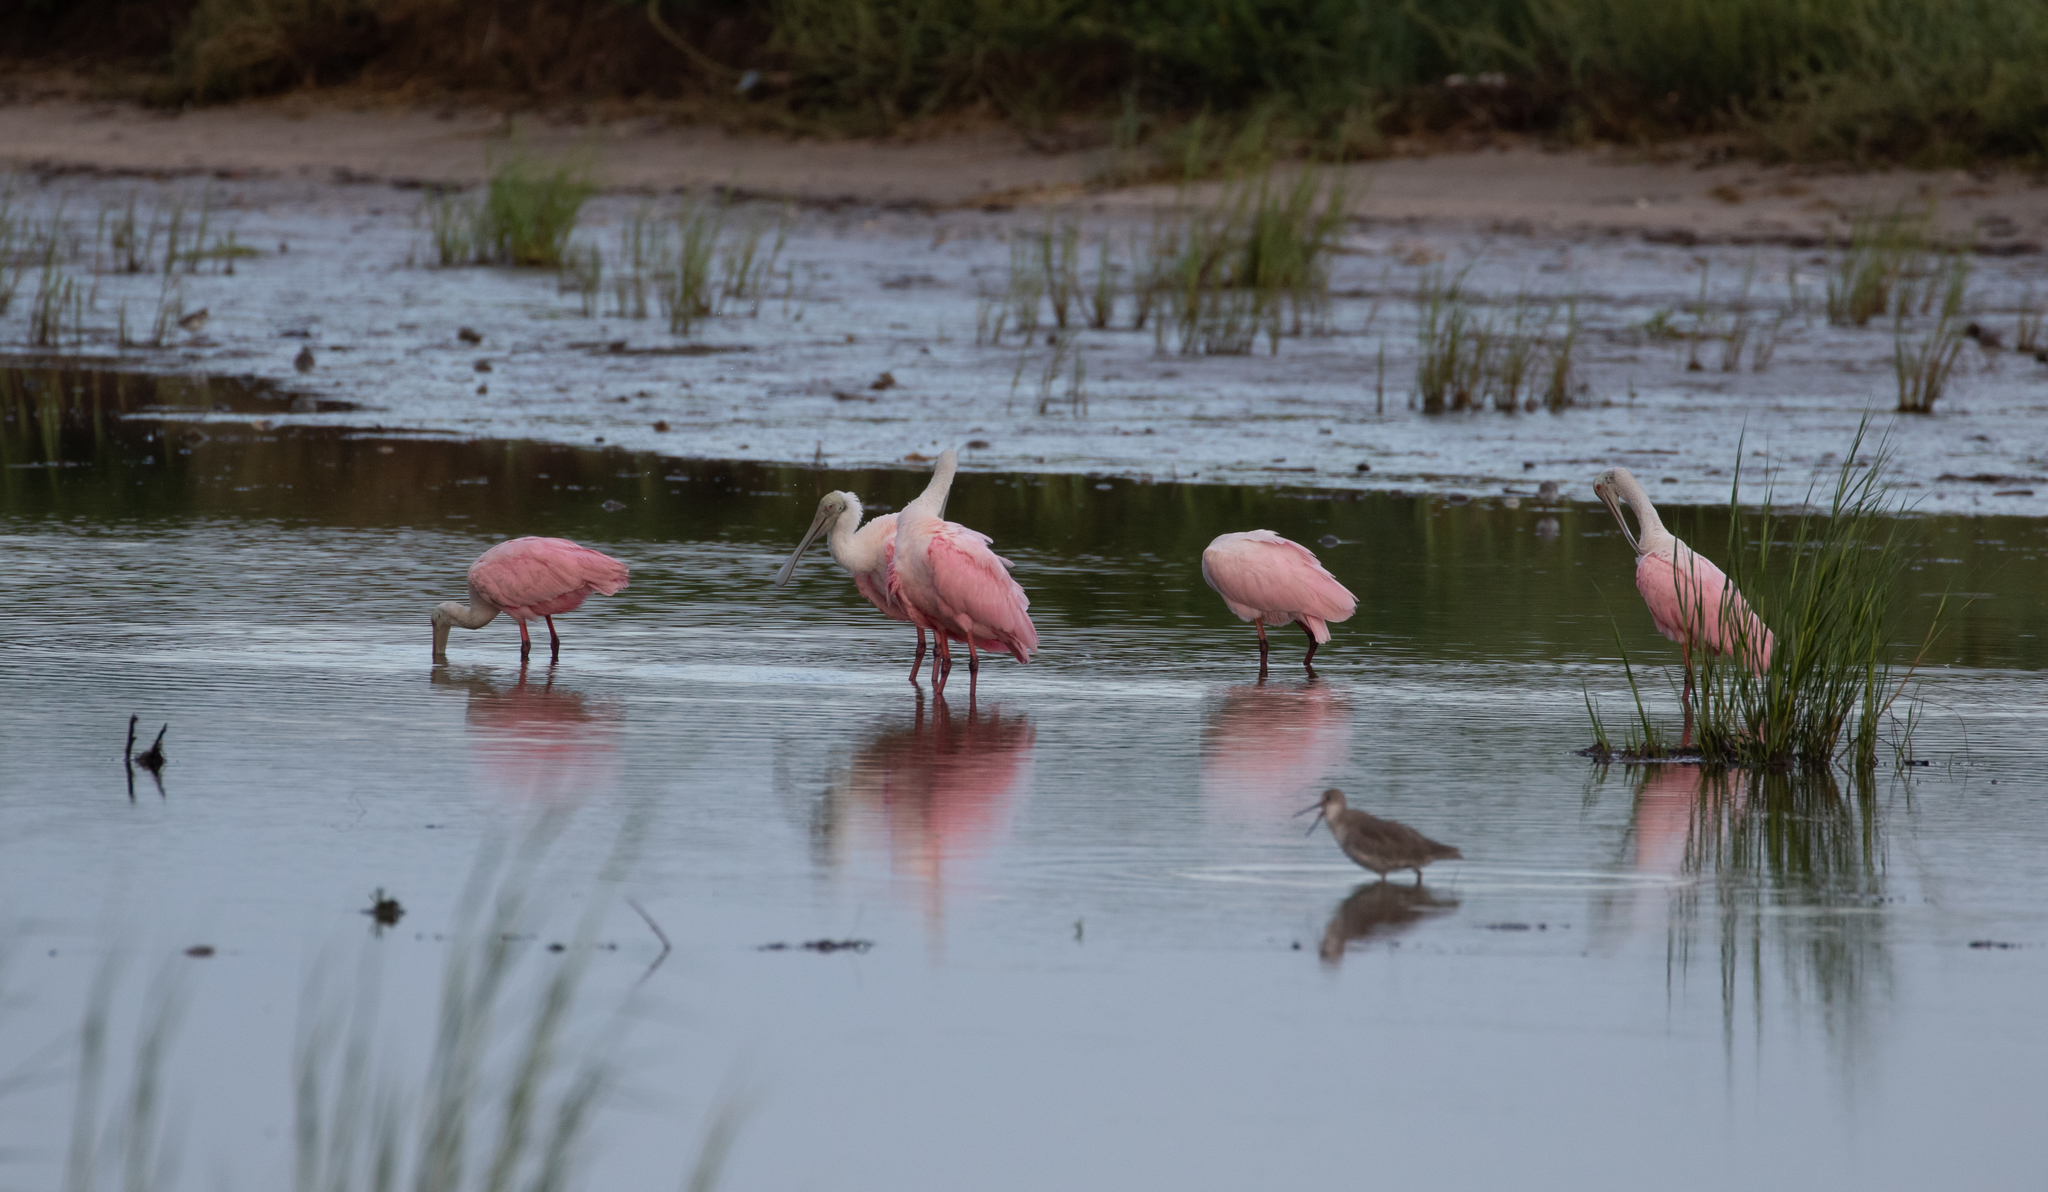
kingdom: Animalia
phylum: Chordata
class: Aves
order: Pelecaniformes
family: Threskiornithidae
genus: Platalea
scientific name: Platalea ajaja
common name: Roseate spoonbill
